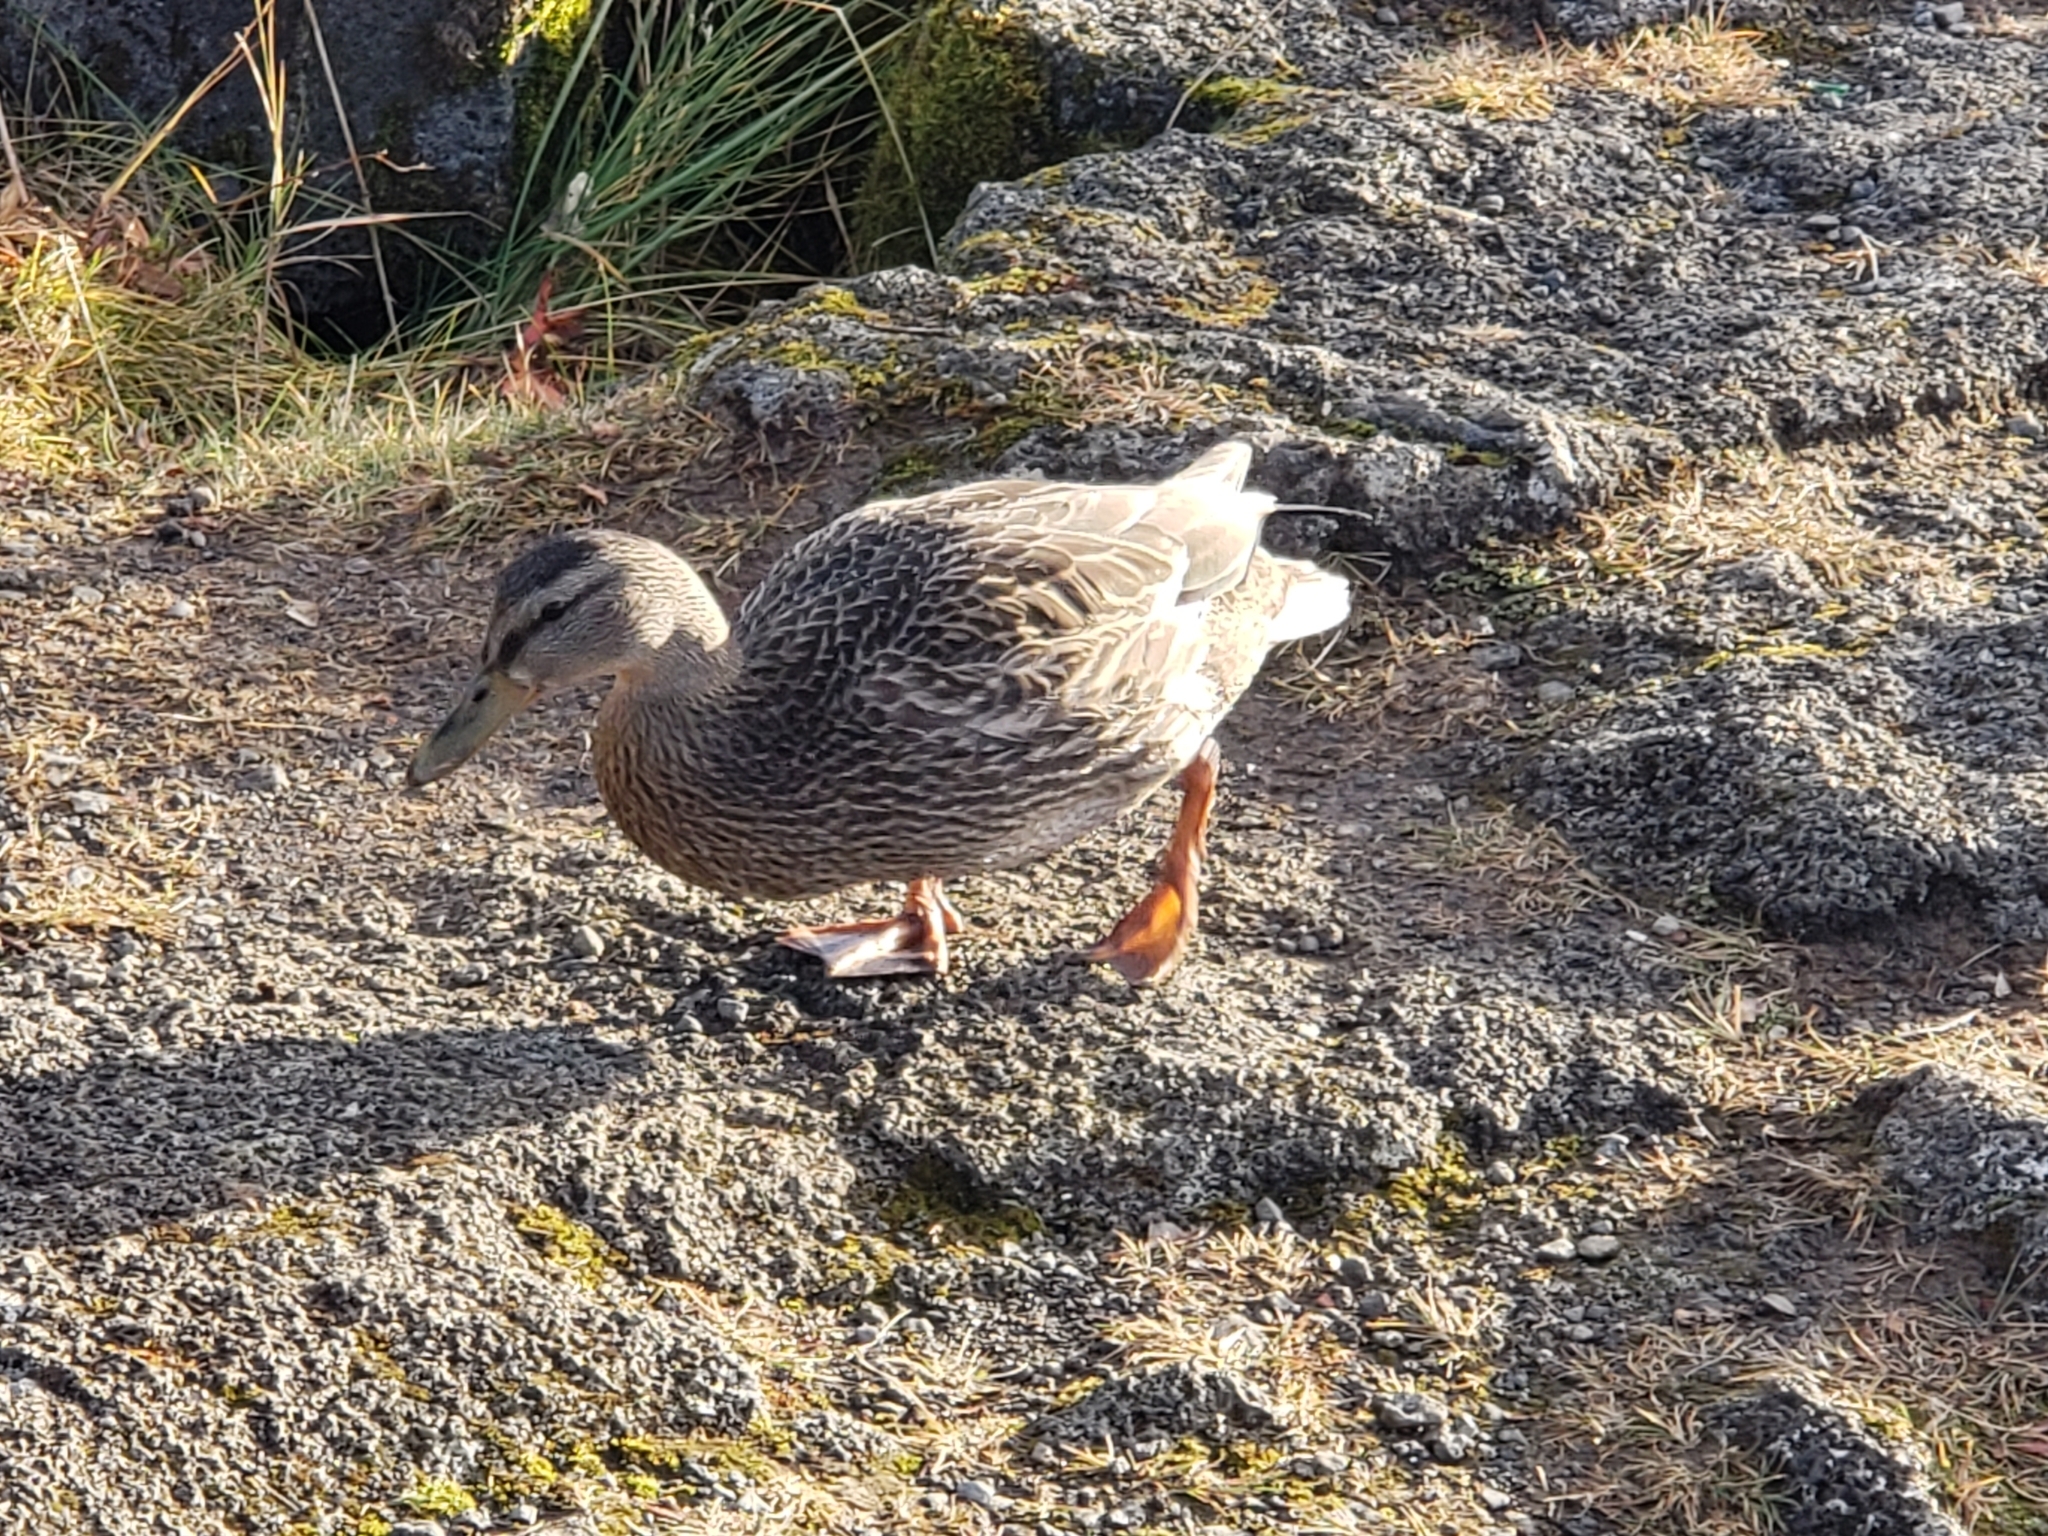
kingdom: Animalia
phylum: Chordata
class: Aves
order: Anseriformes
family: Anatidae
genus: Anas
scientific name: Anas platyrhynchos
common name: Mallard
